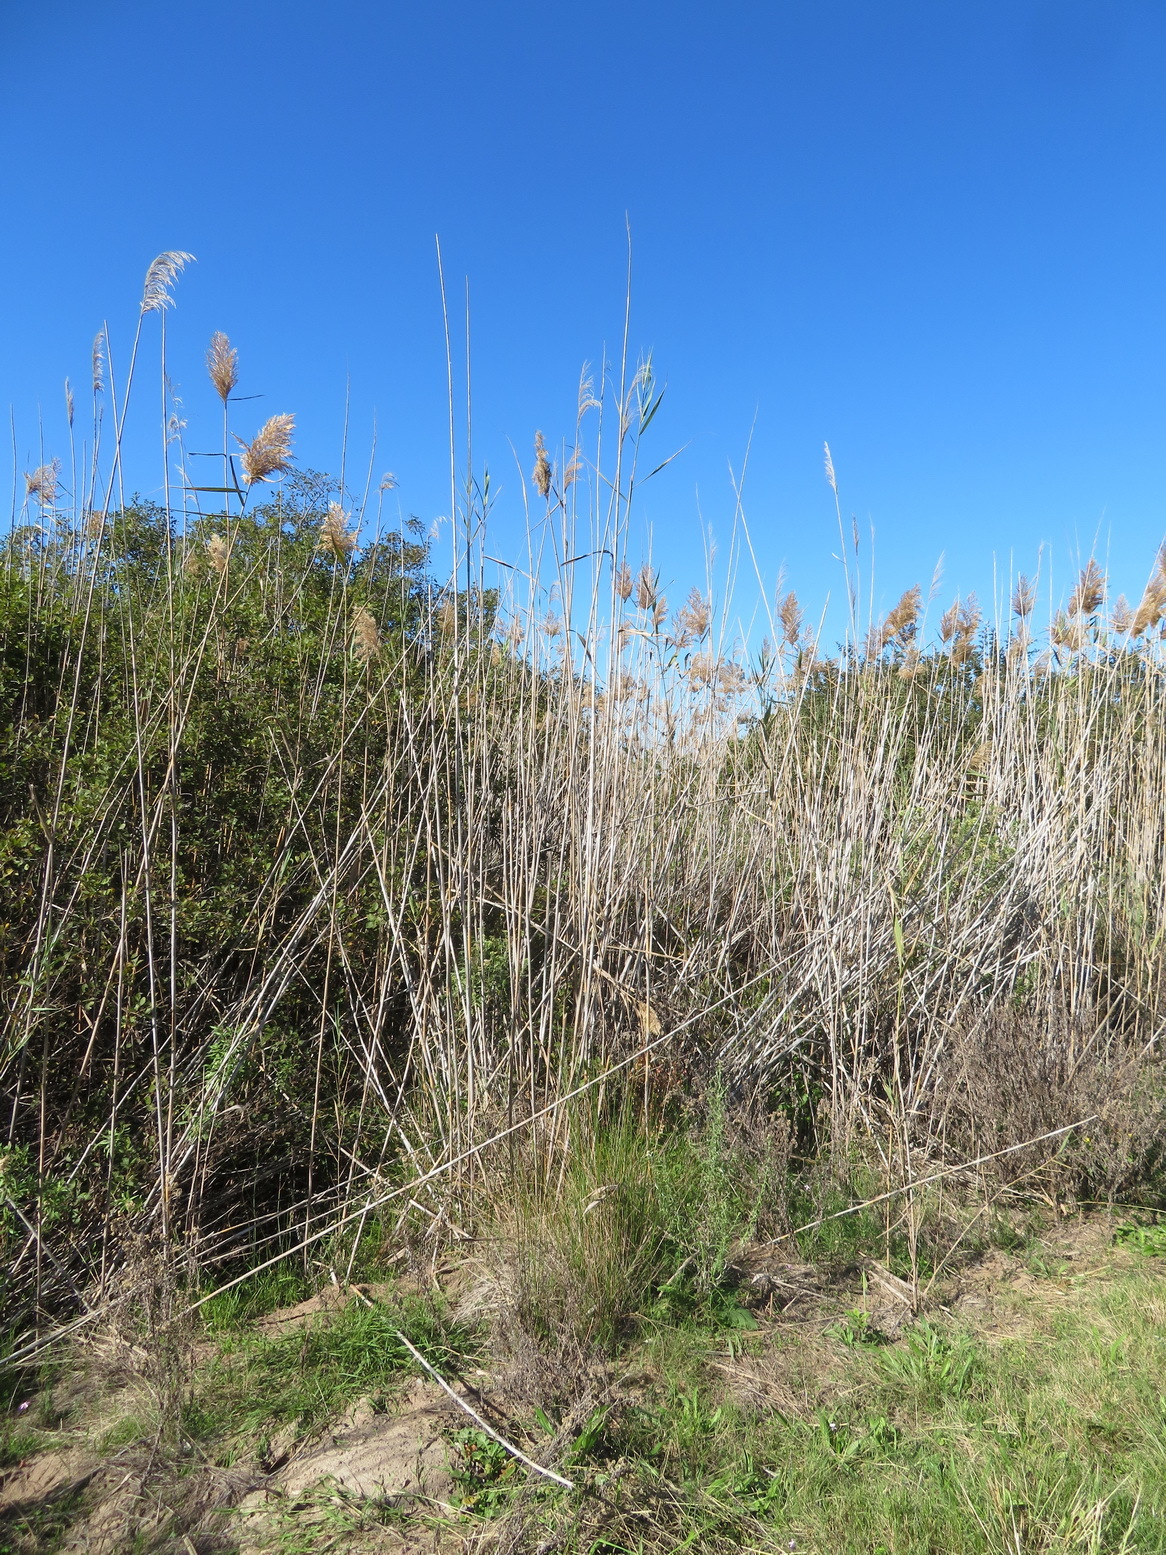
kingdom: Plantae
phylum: Tracheophyta
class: Liliopsida
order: Poales
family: Poaceae
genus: Phragmites
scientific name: Phragmites australis
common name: Common reed
